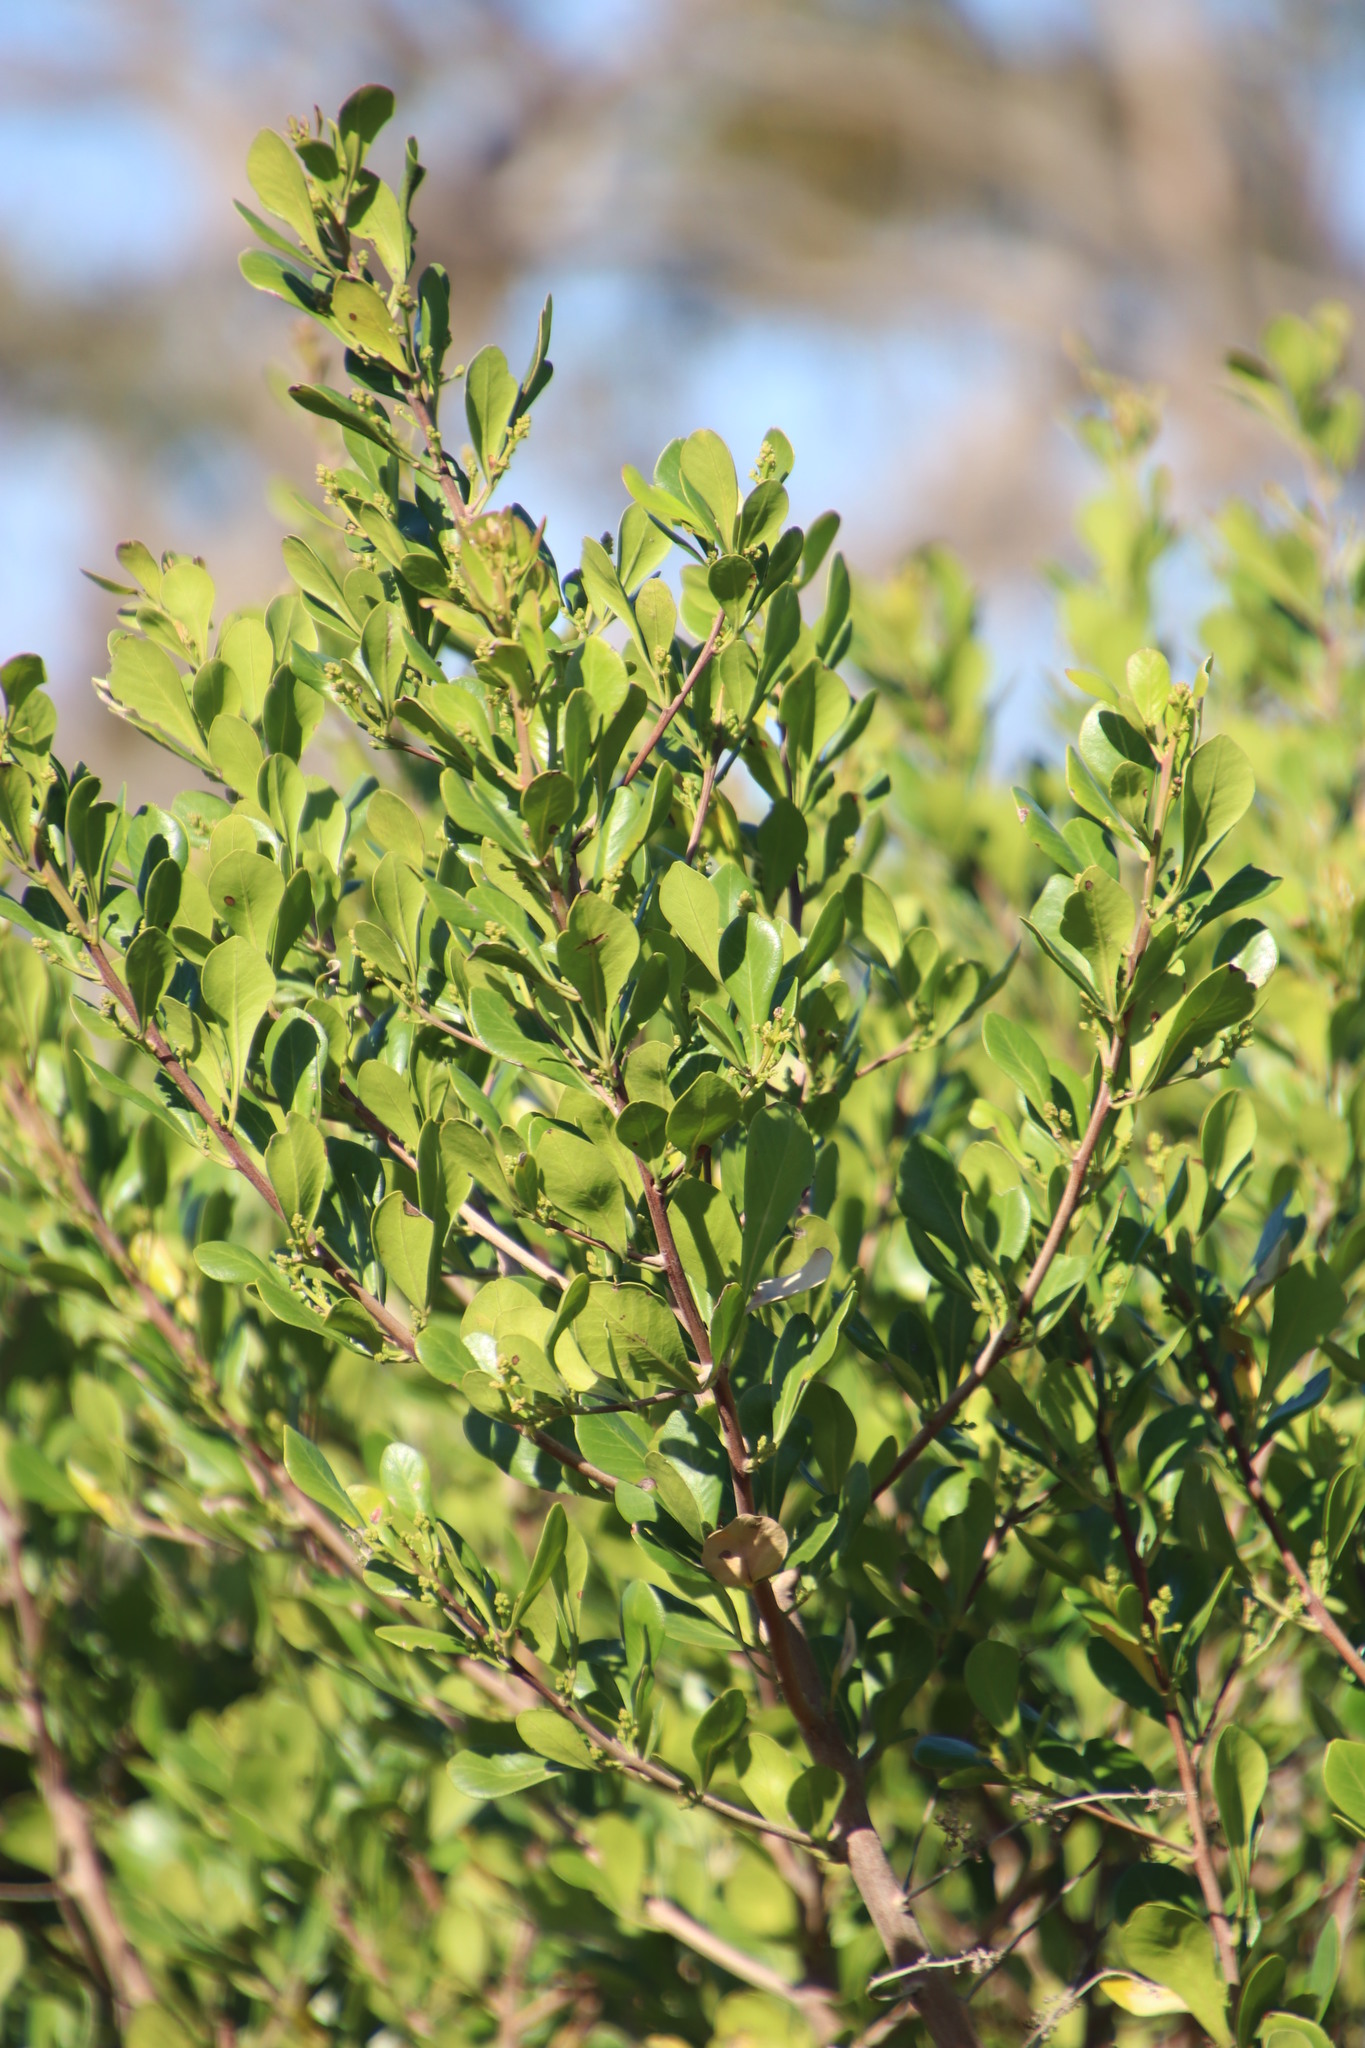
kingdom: Plantae
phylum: Tracheophyta
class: Magnoliopsida
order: Sapindales
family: Anacardiaceae
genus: Searsia
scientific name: Searsia lucida
